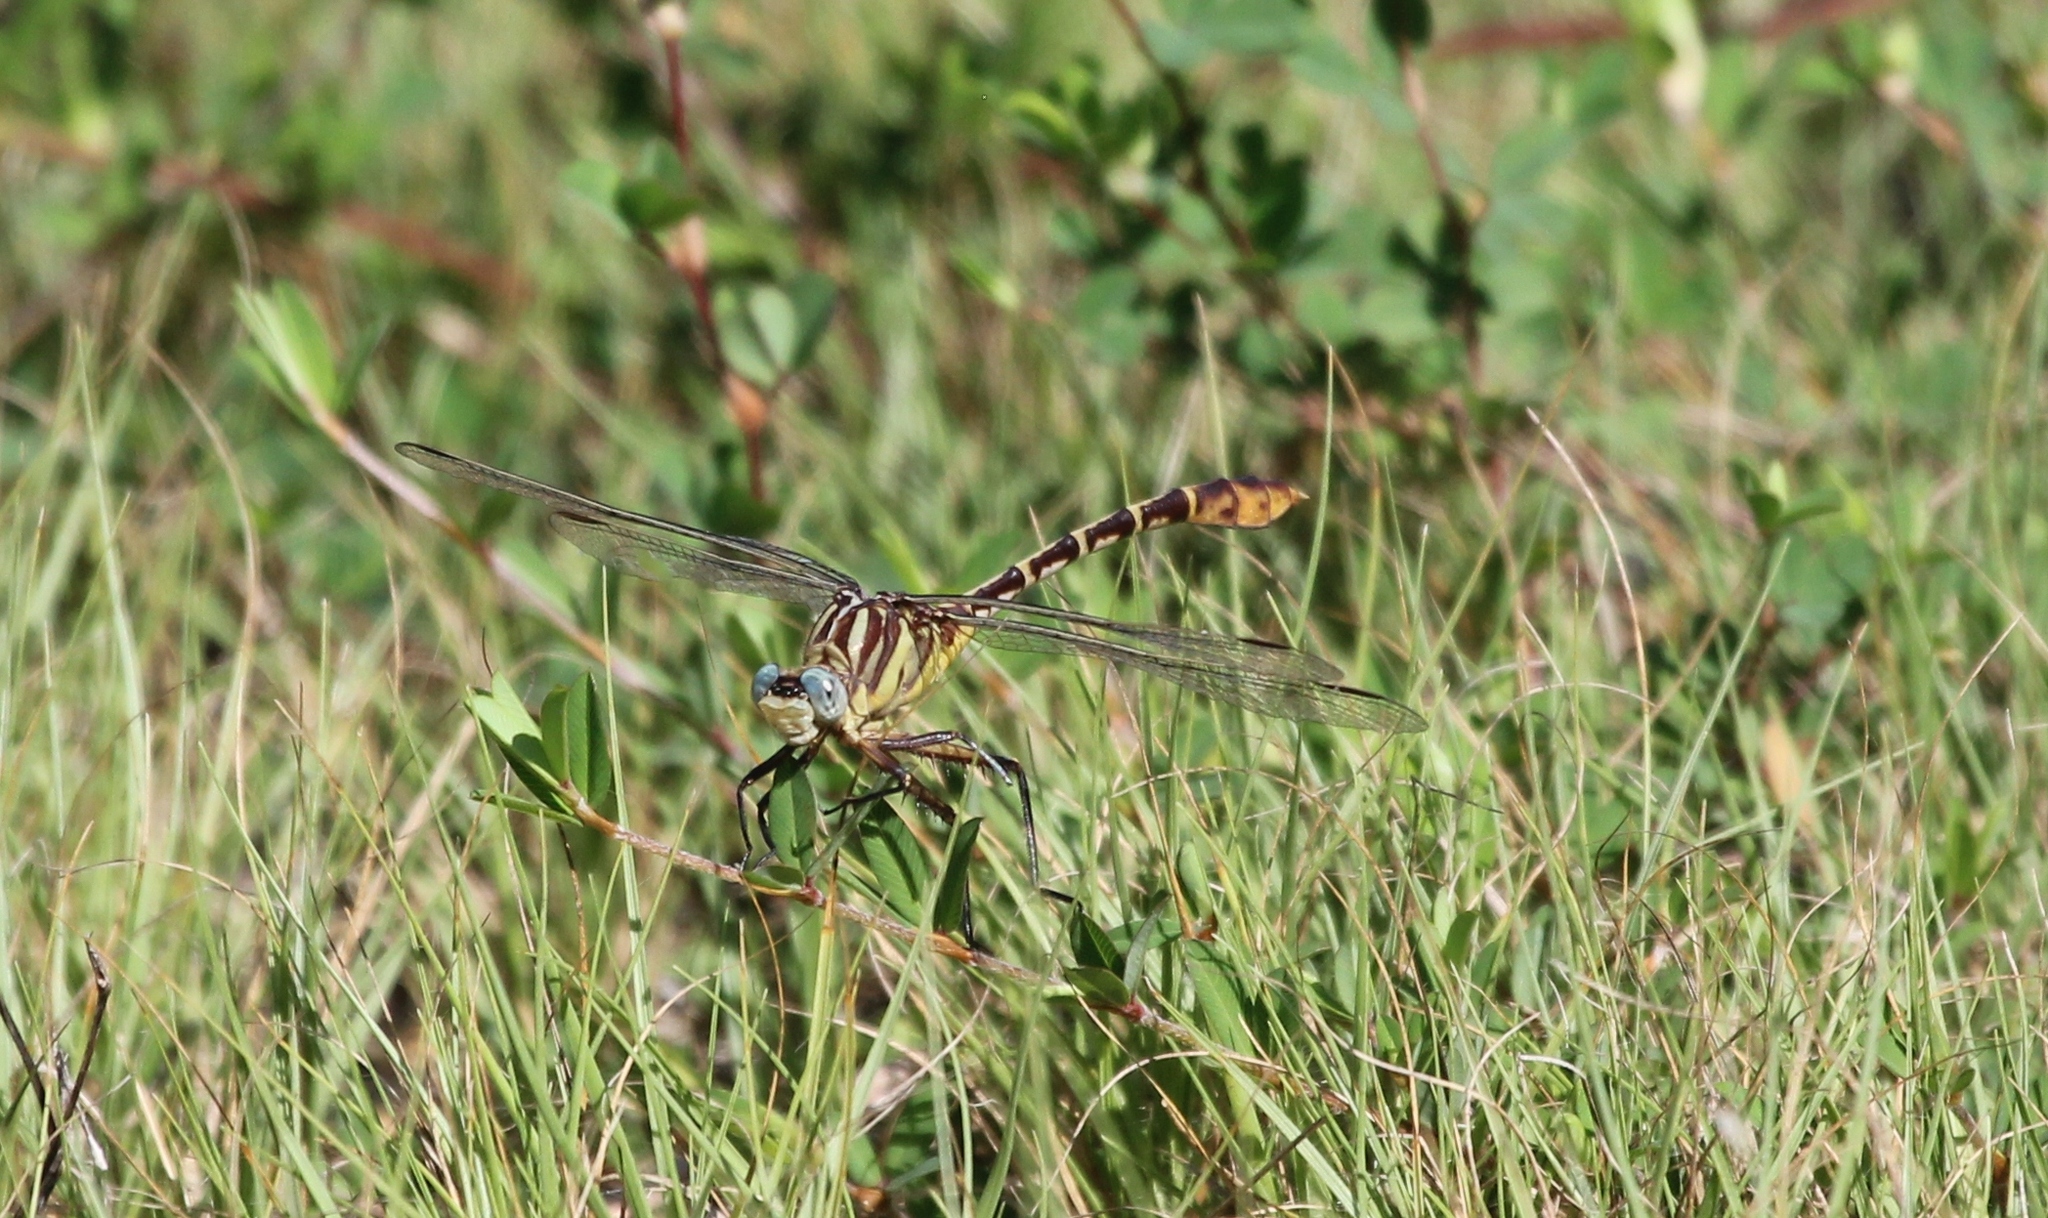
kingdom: Animalia
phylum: Arthropoda
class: Insecta
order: Odonata
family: Gomphidae
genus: Dromogomphus
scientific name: Dromogomphus spoliatus
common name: Flag-tailed spinyleg
